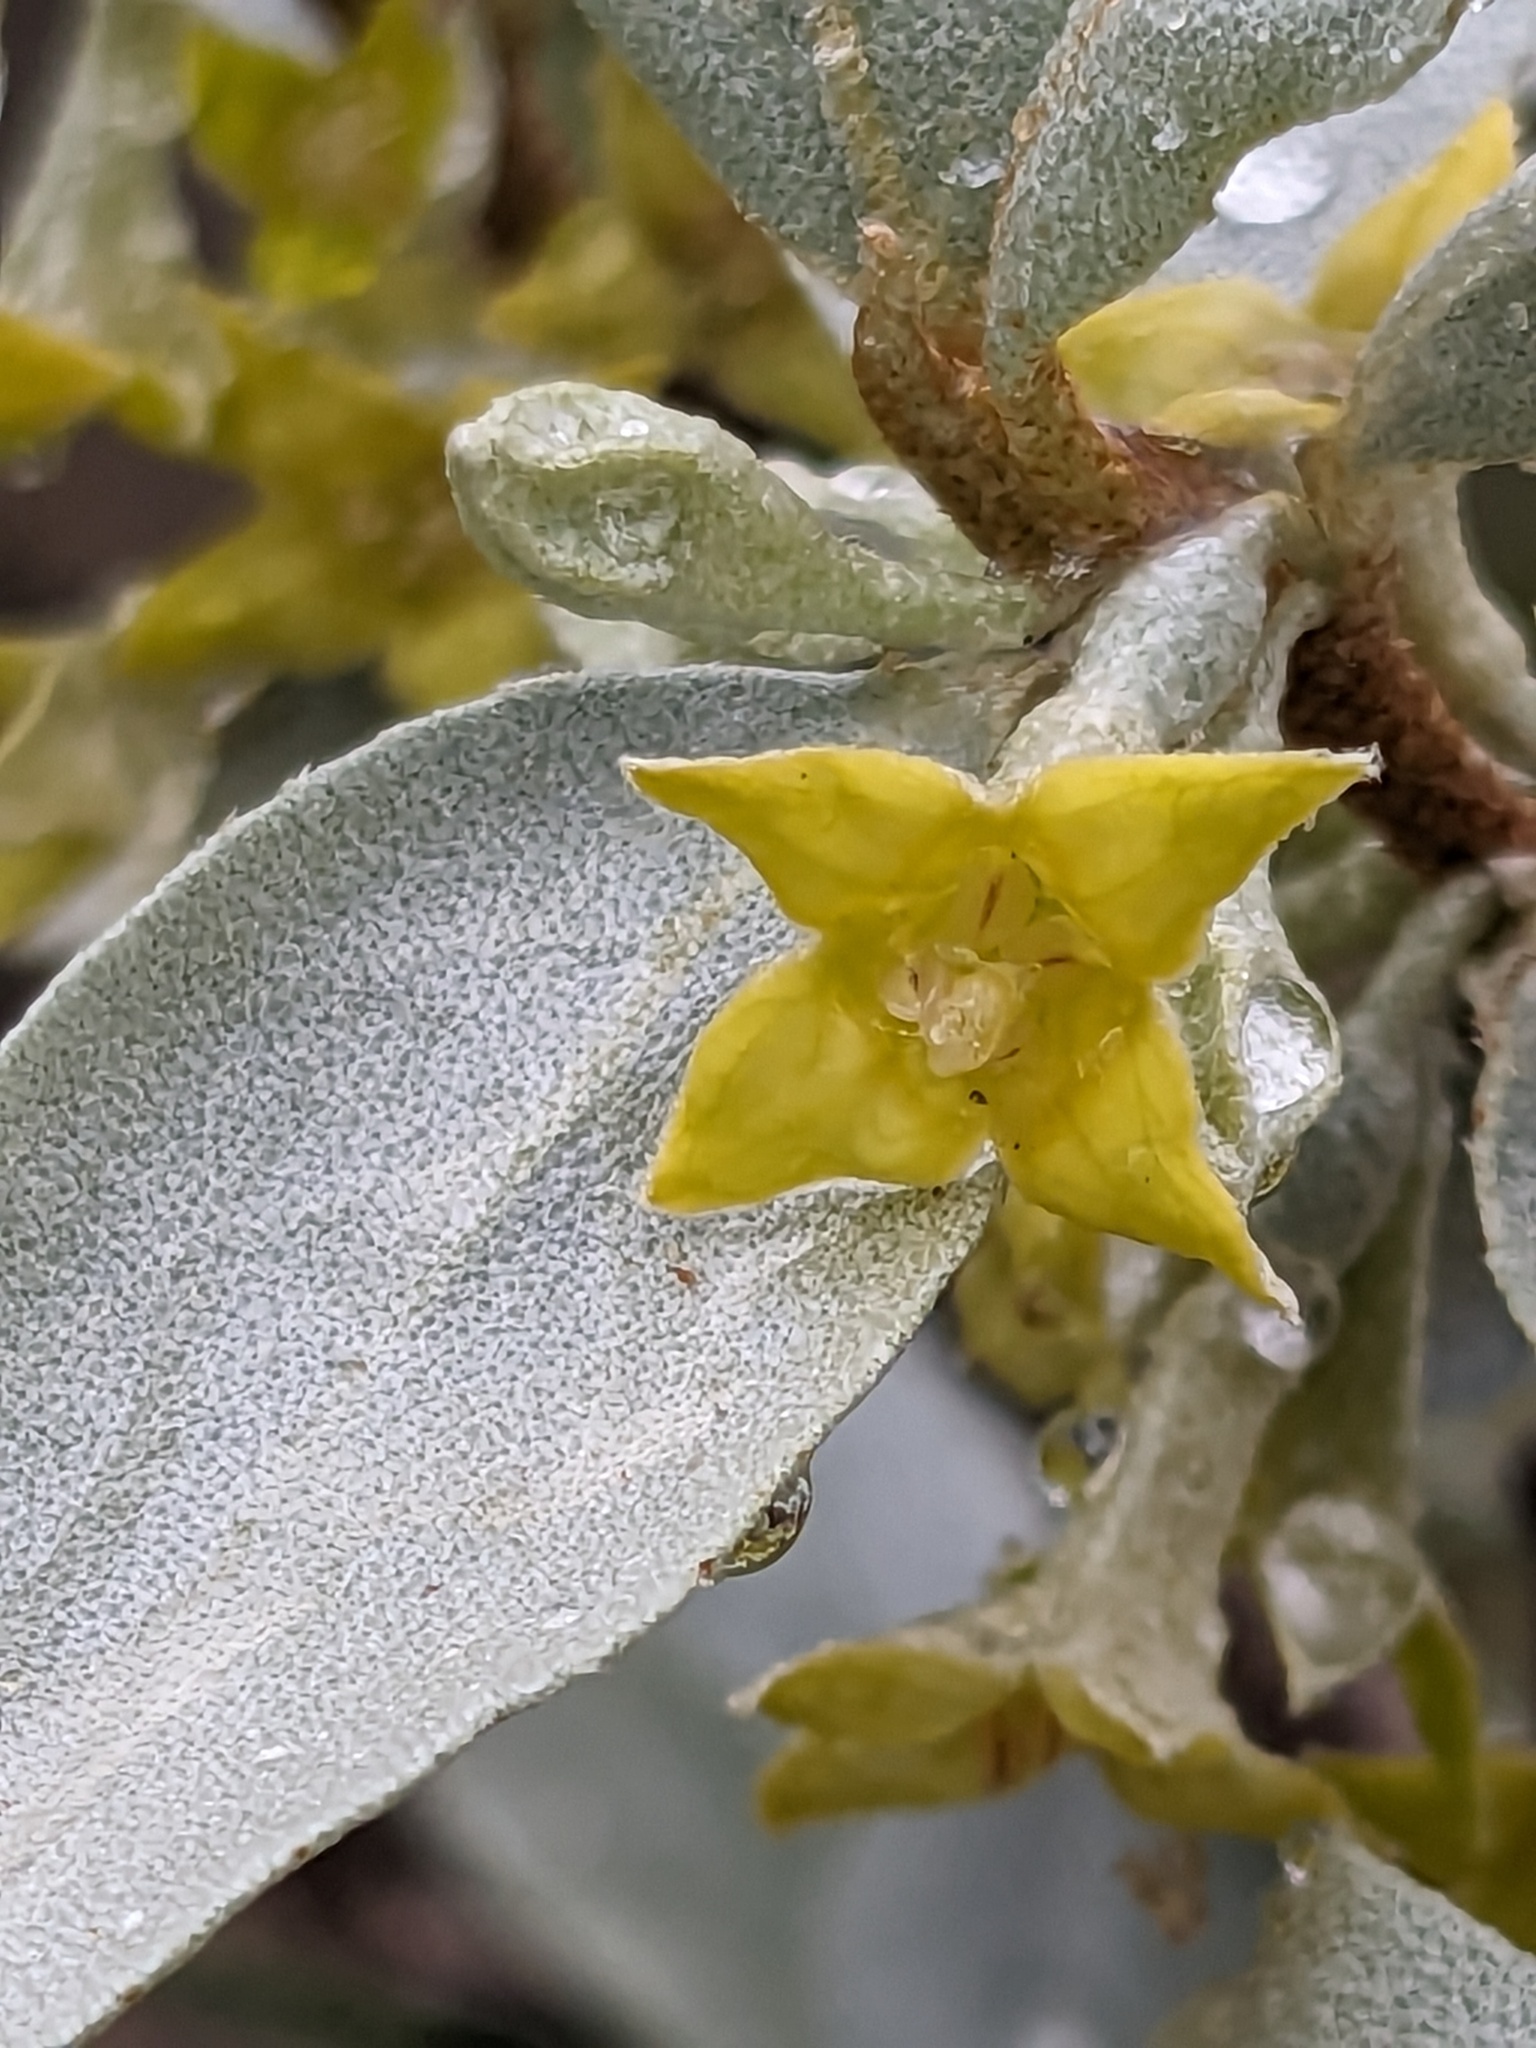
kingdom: Plantae
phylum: Tracheophyta
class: Magnoliopsida
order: Rosales
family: Elaeagnaceae
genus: Elaeagnus
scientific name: Elaeagnus commutata
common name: Silverberry
